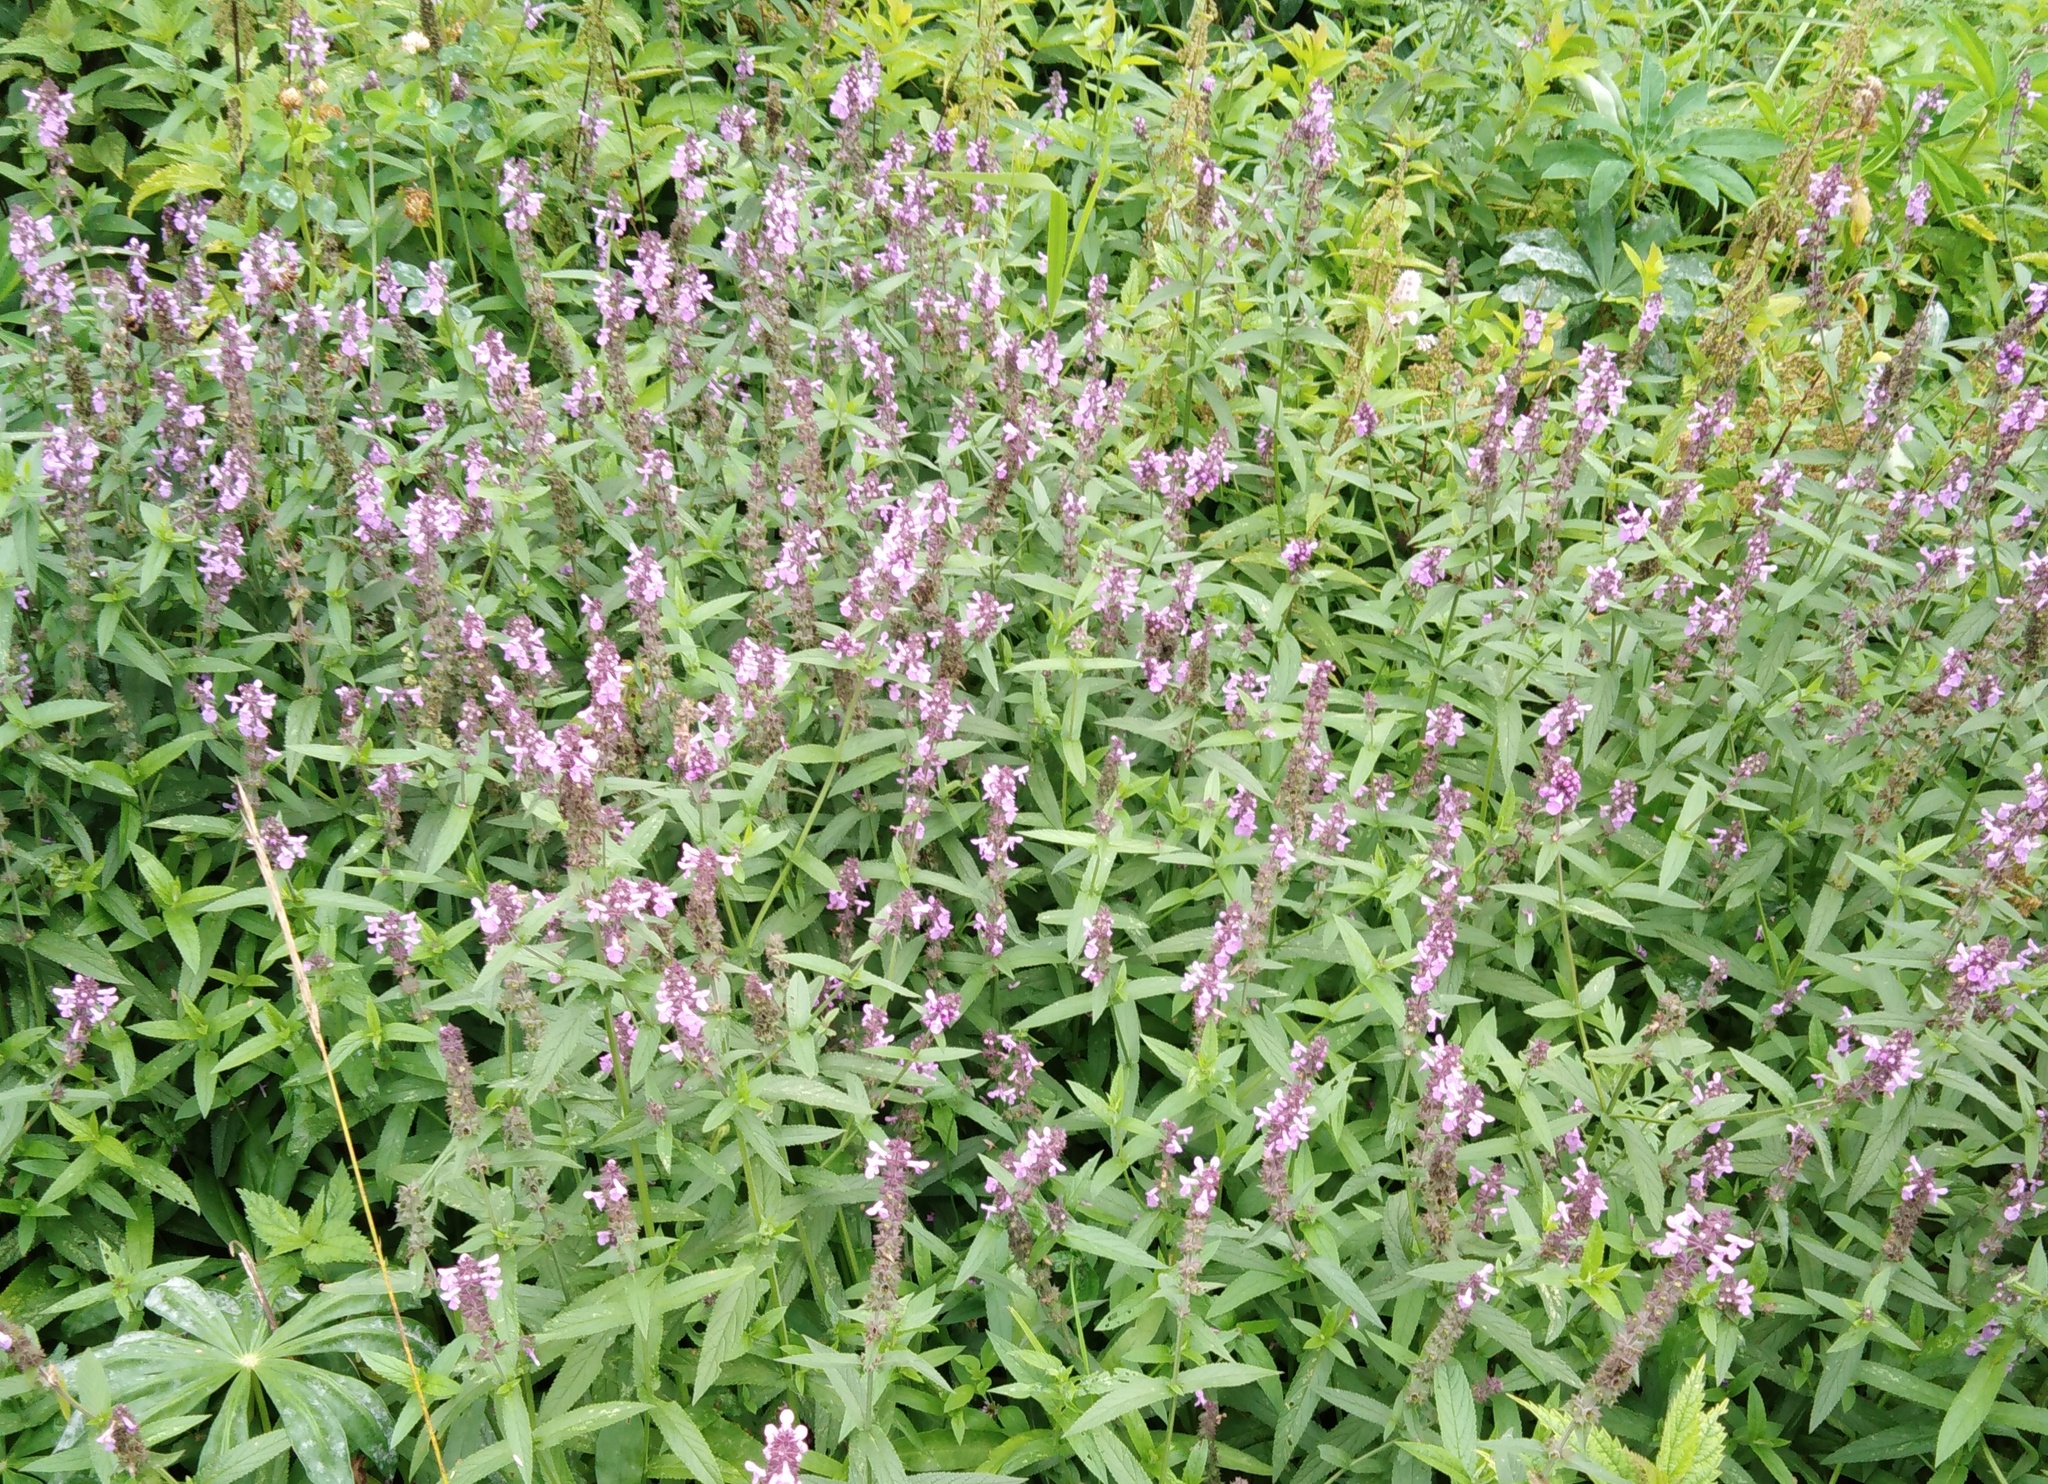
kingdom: Plantae
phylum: Tracheophyta
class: Magnoliopsida
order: Lamiales
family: Lamiaceae
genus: Stachys
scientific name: Stachys palustris
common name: Marsh woundwort
